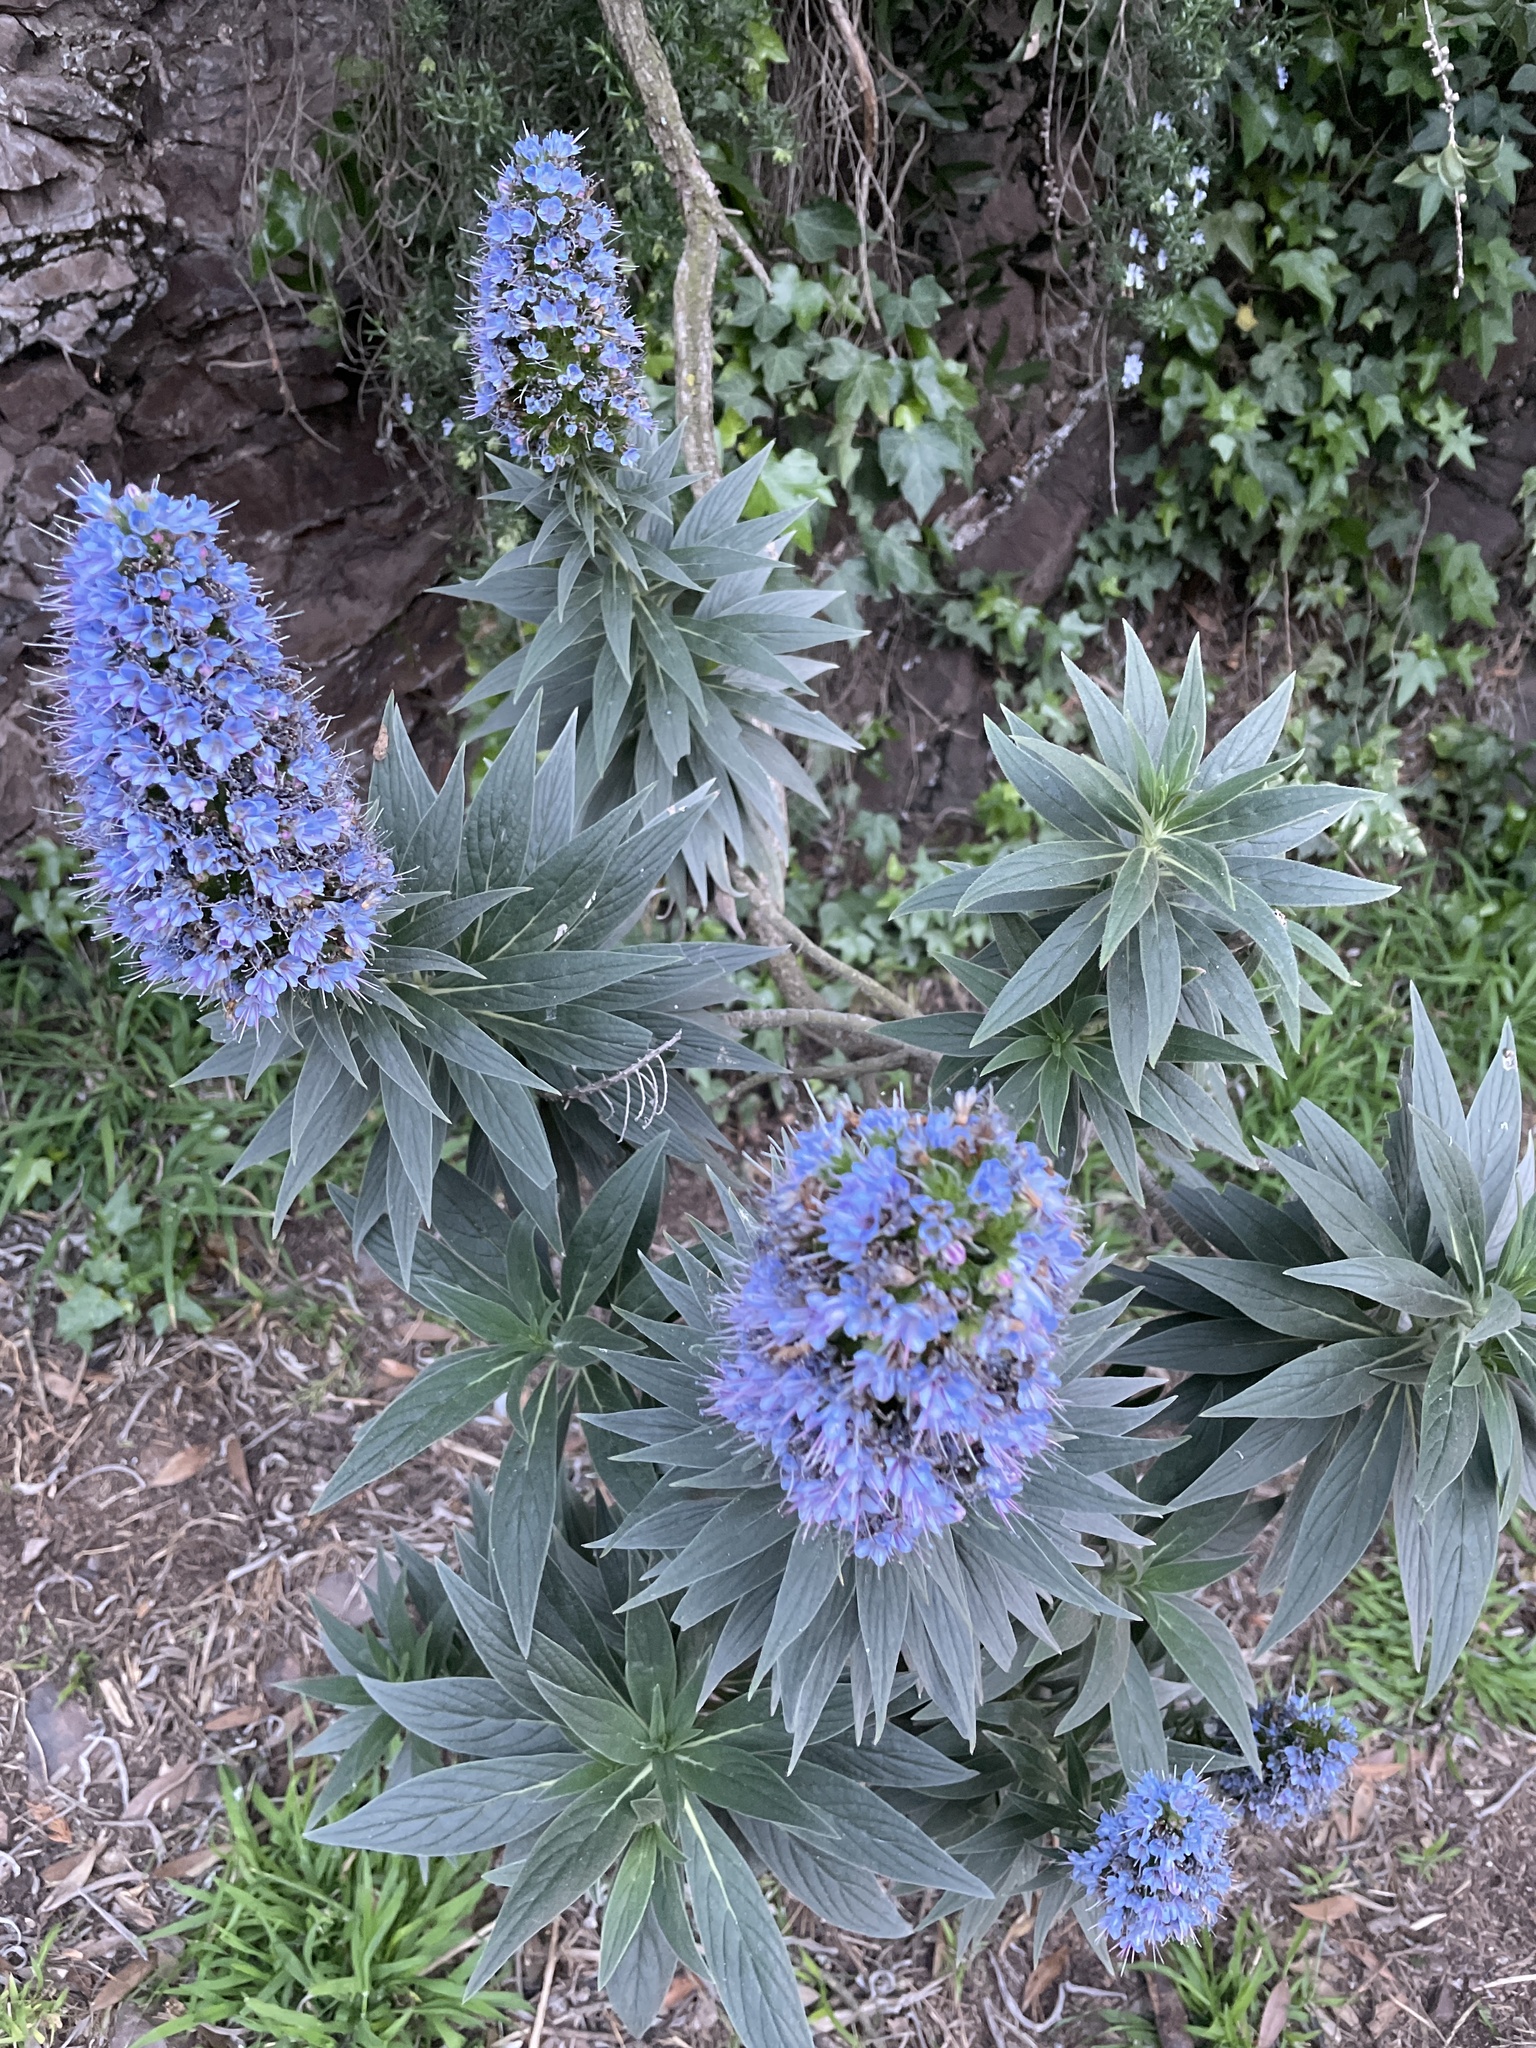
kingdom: Plantae
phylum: Tracheophyta
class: Magnoliopsida
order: Boraginales
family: Boraginaceae
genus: Echium
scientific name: Echium candicans
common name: Pride of madeira
